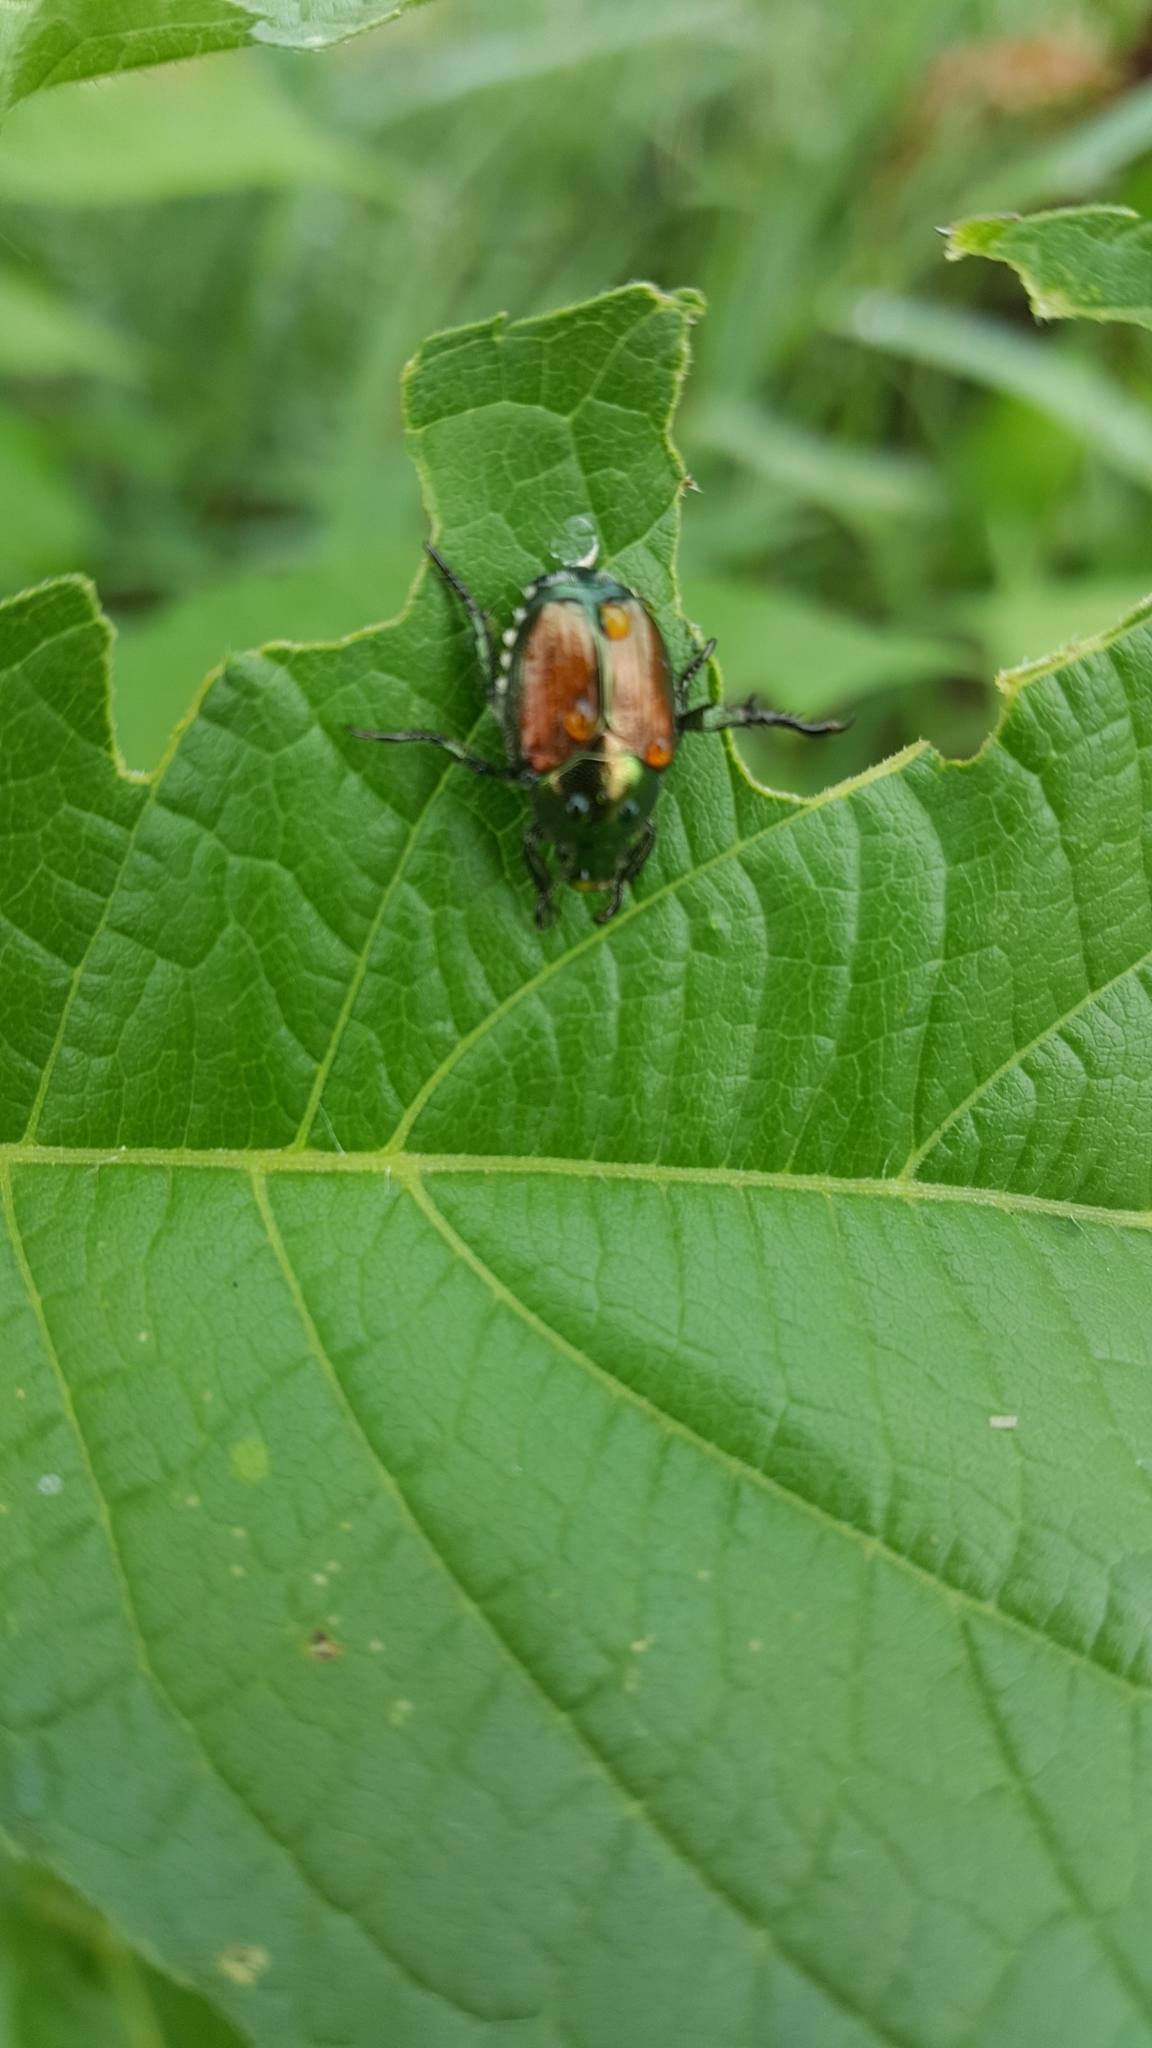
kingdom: Animalia
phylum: Arthropoda
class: Insecta
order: Coleoptera
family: Scarabaeidae
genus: Popillia
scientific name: Popillia japonica
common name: Japanese beetle
